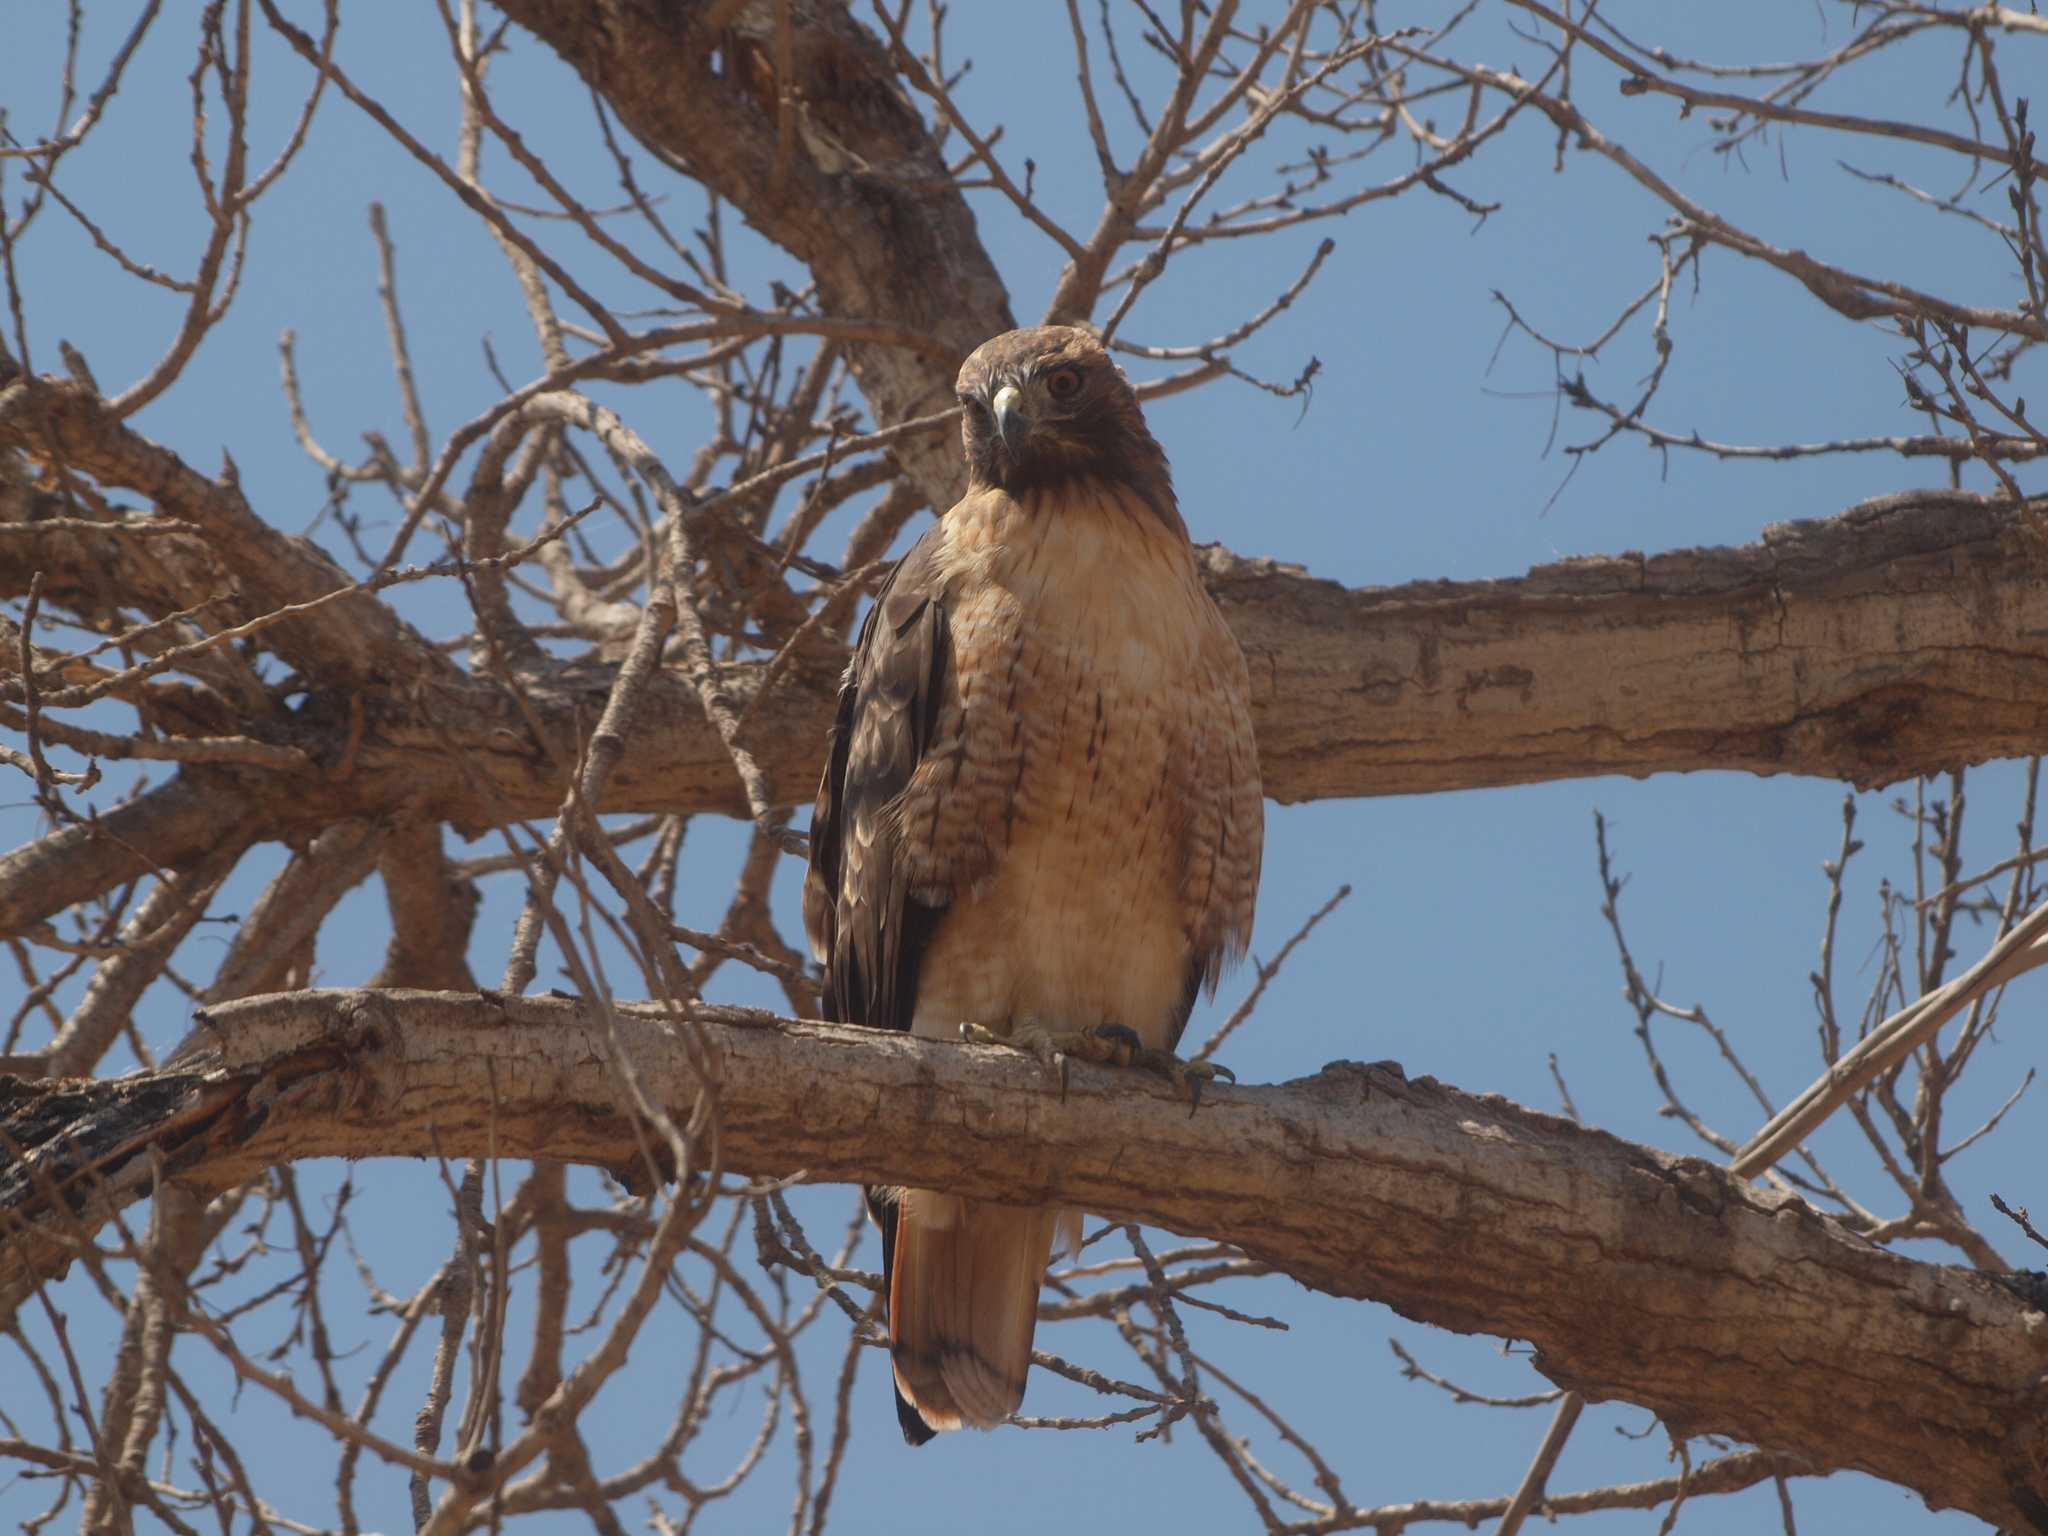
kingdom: Animalia
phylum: Chordata
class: Aves
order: Accipitriformes
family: Accipitridae
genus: Buteo
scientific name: Buteo jamaicensis
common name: Red-tailed hawk
